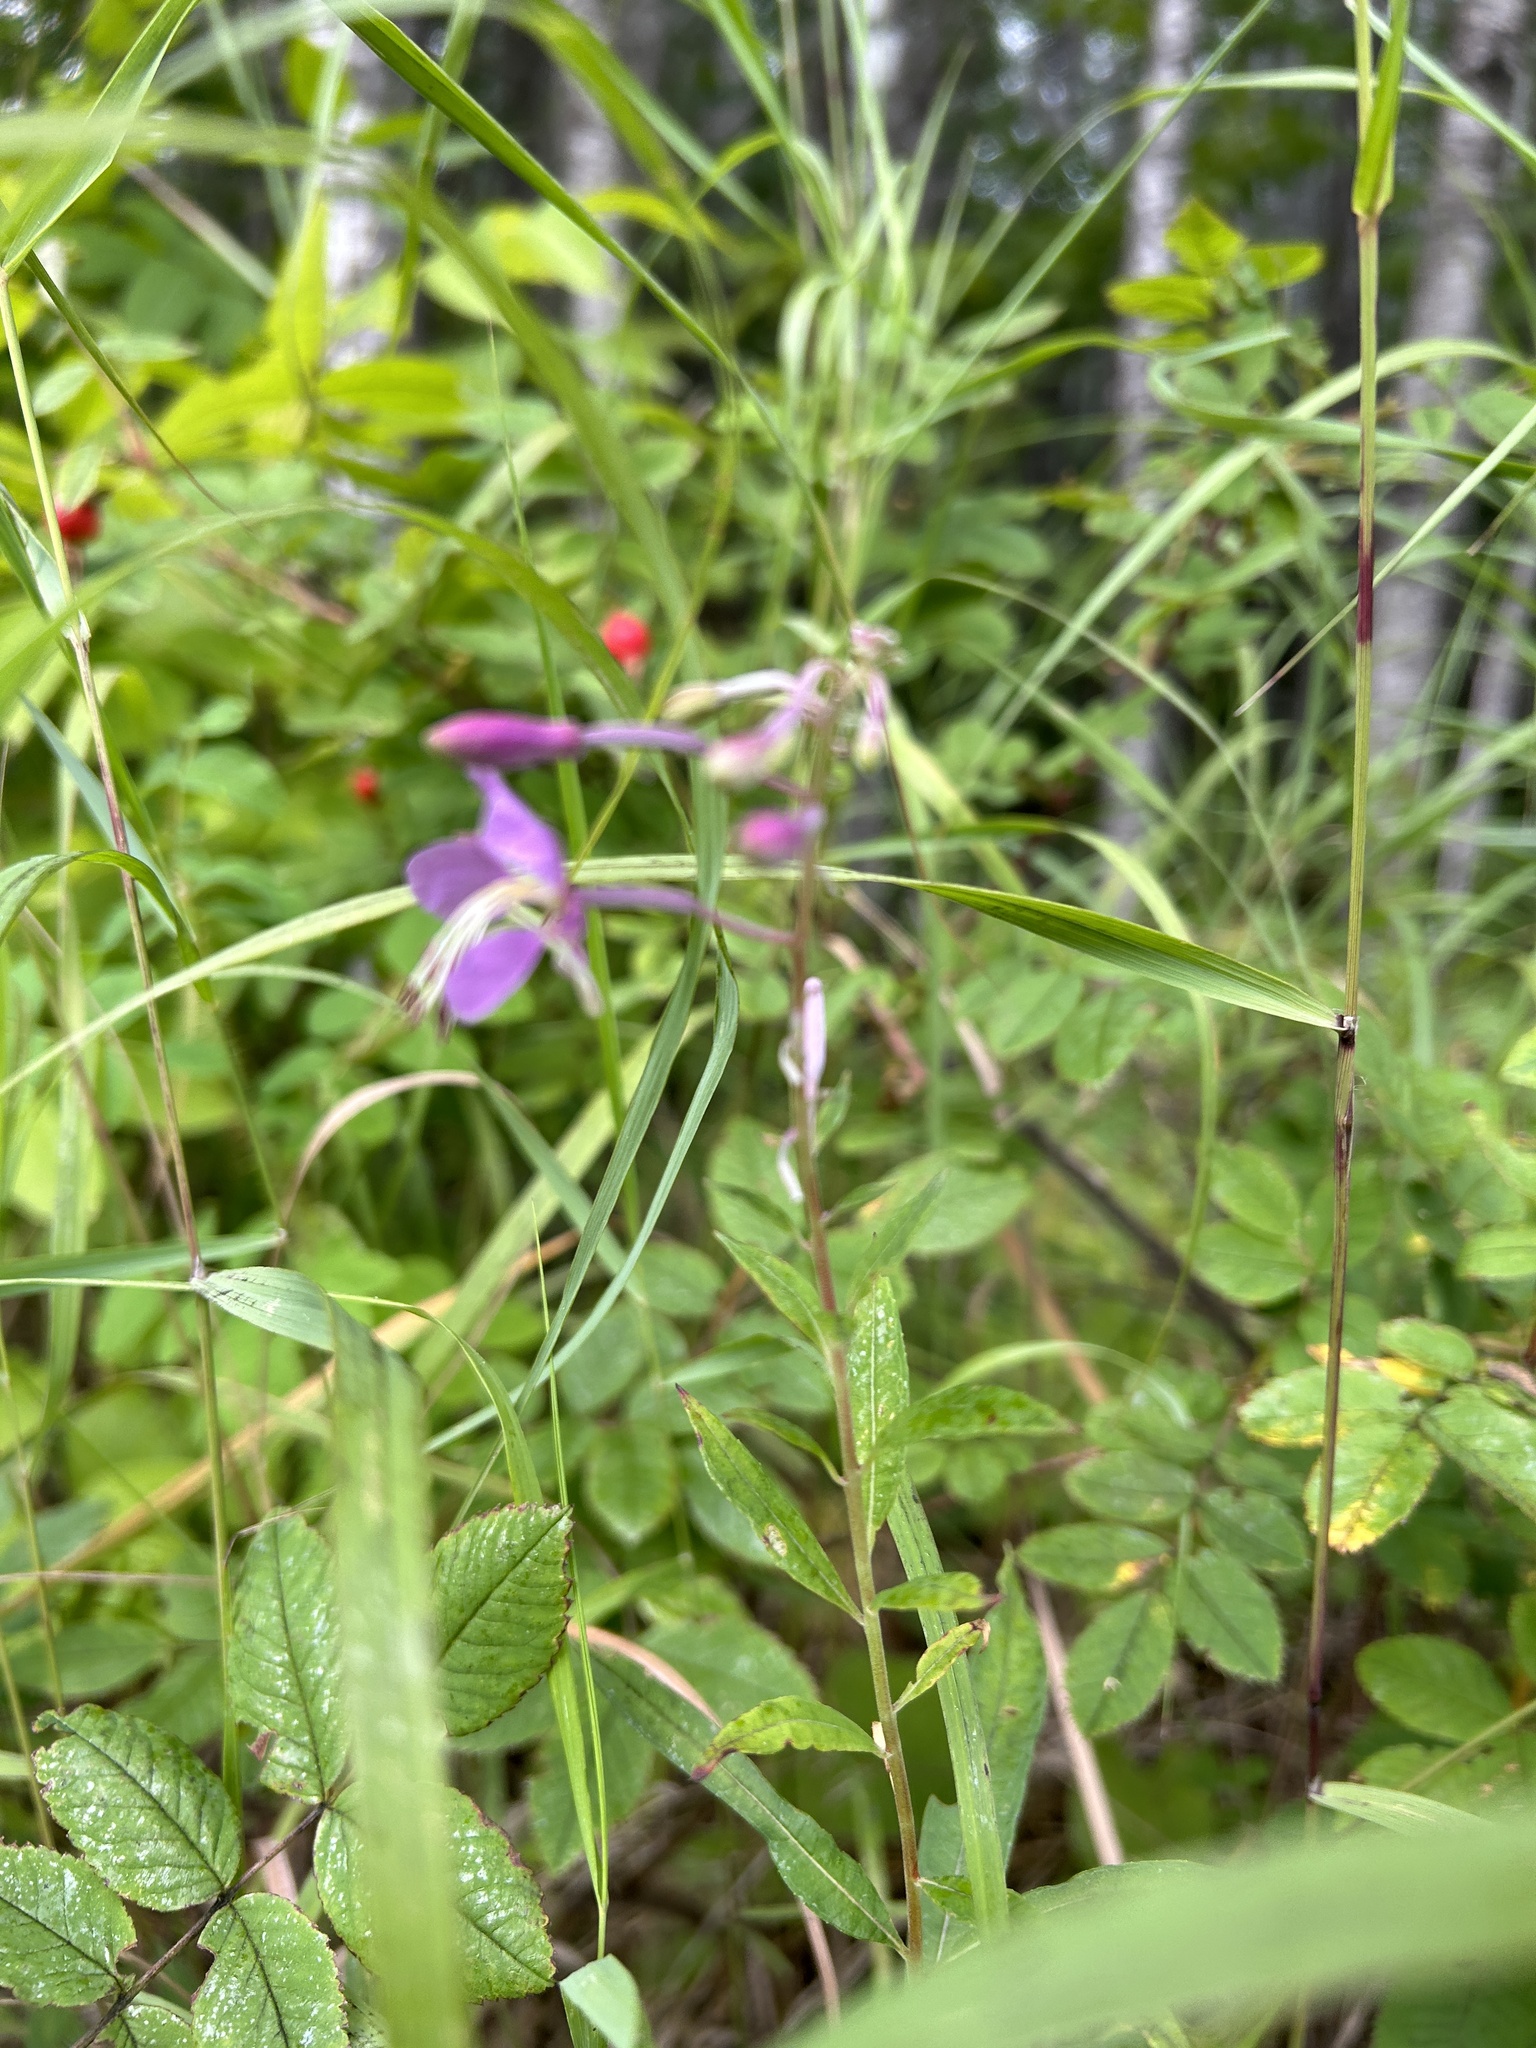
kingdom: Plantae
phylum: Tracheophyta
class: Magnoliopsida
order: Myrtales
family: Onagraceae
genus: Chamaenerion
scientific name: Chamaenerion angustifolium
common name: Fireweed
